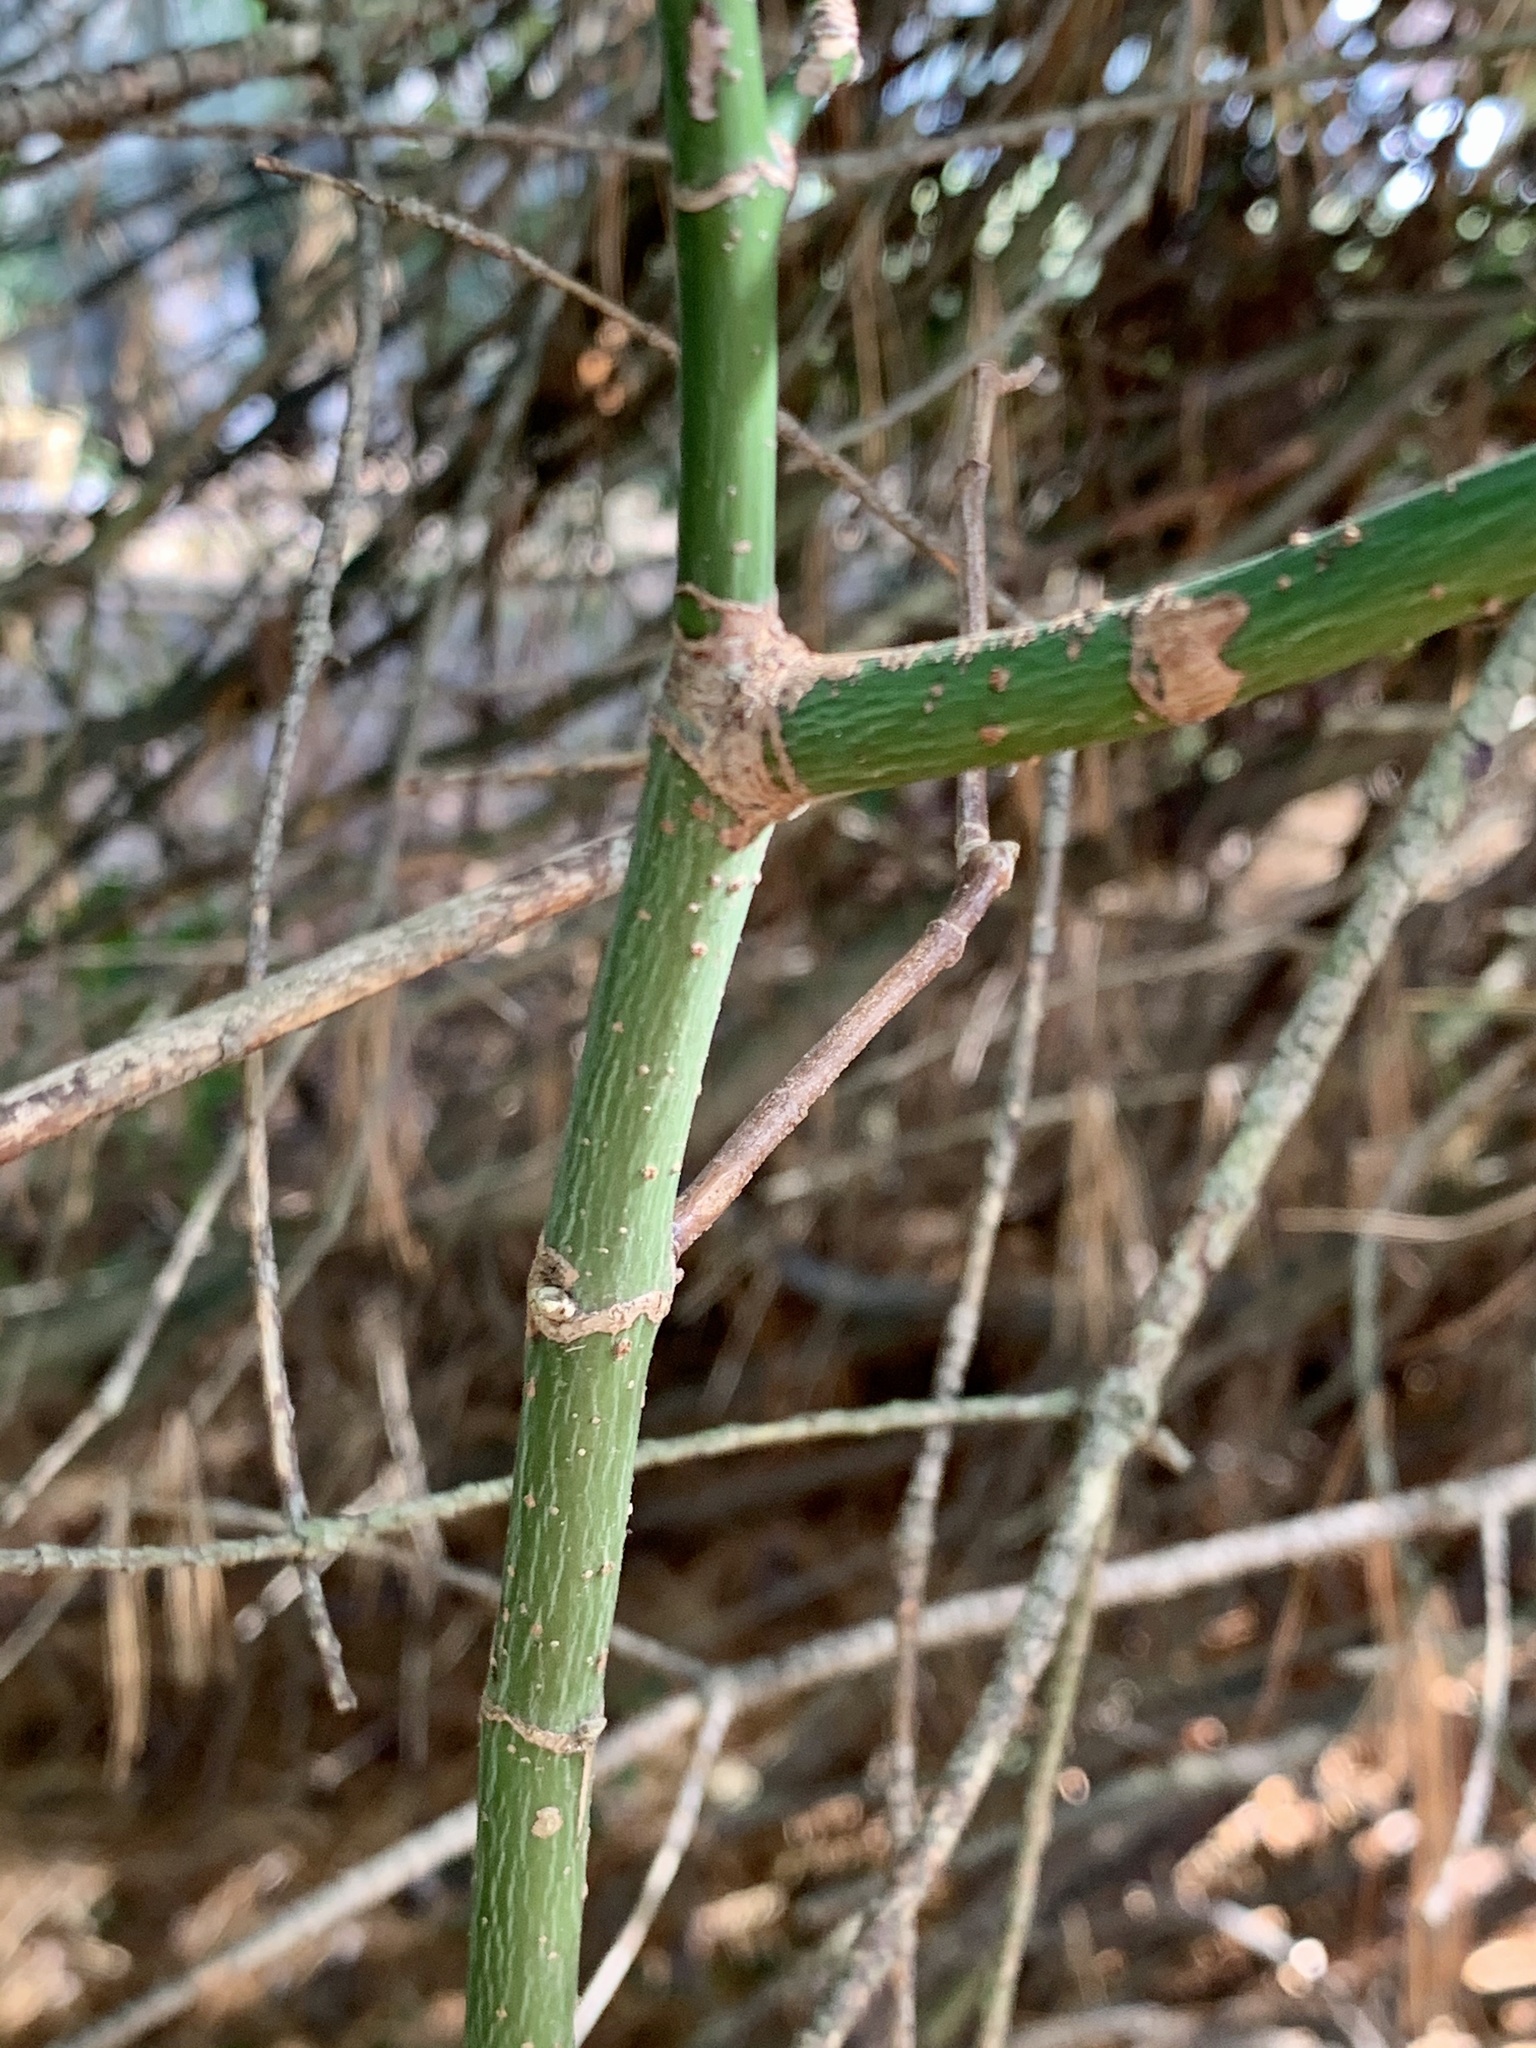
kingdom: Plantae
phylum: Tracheophyta
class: Magnoliopsida
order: Sapindales
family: Sapindaceae
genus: Acer
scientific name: Acer negundo
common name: Ashleaf maple
